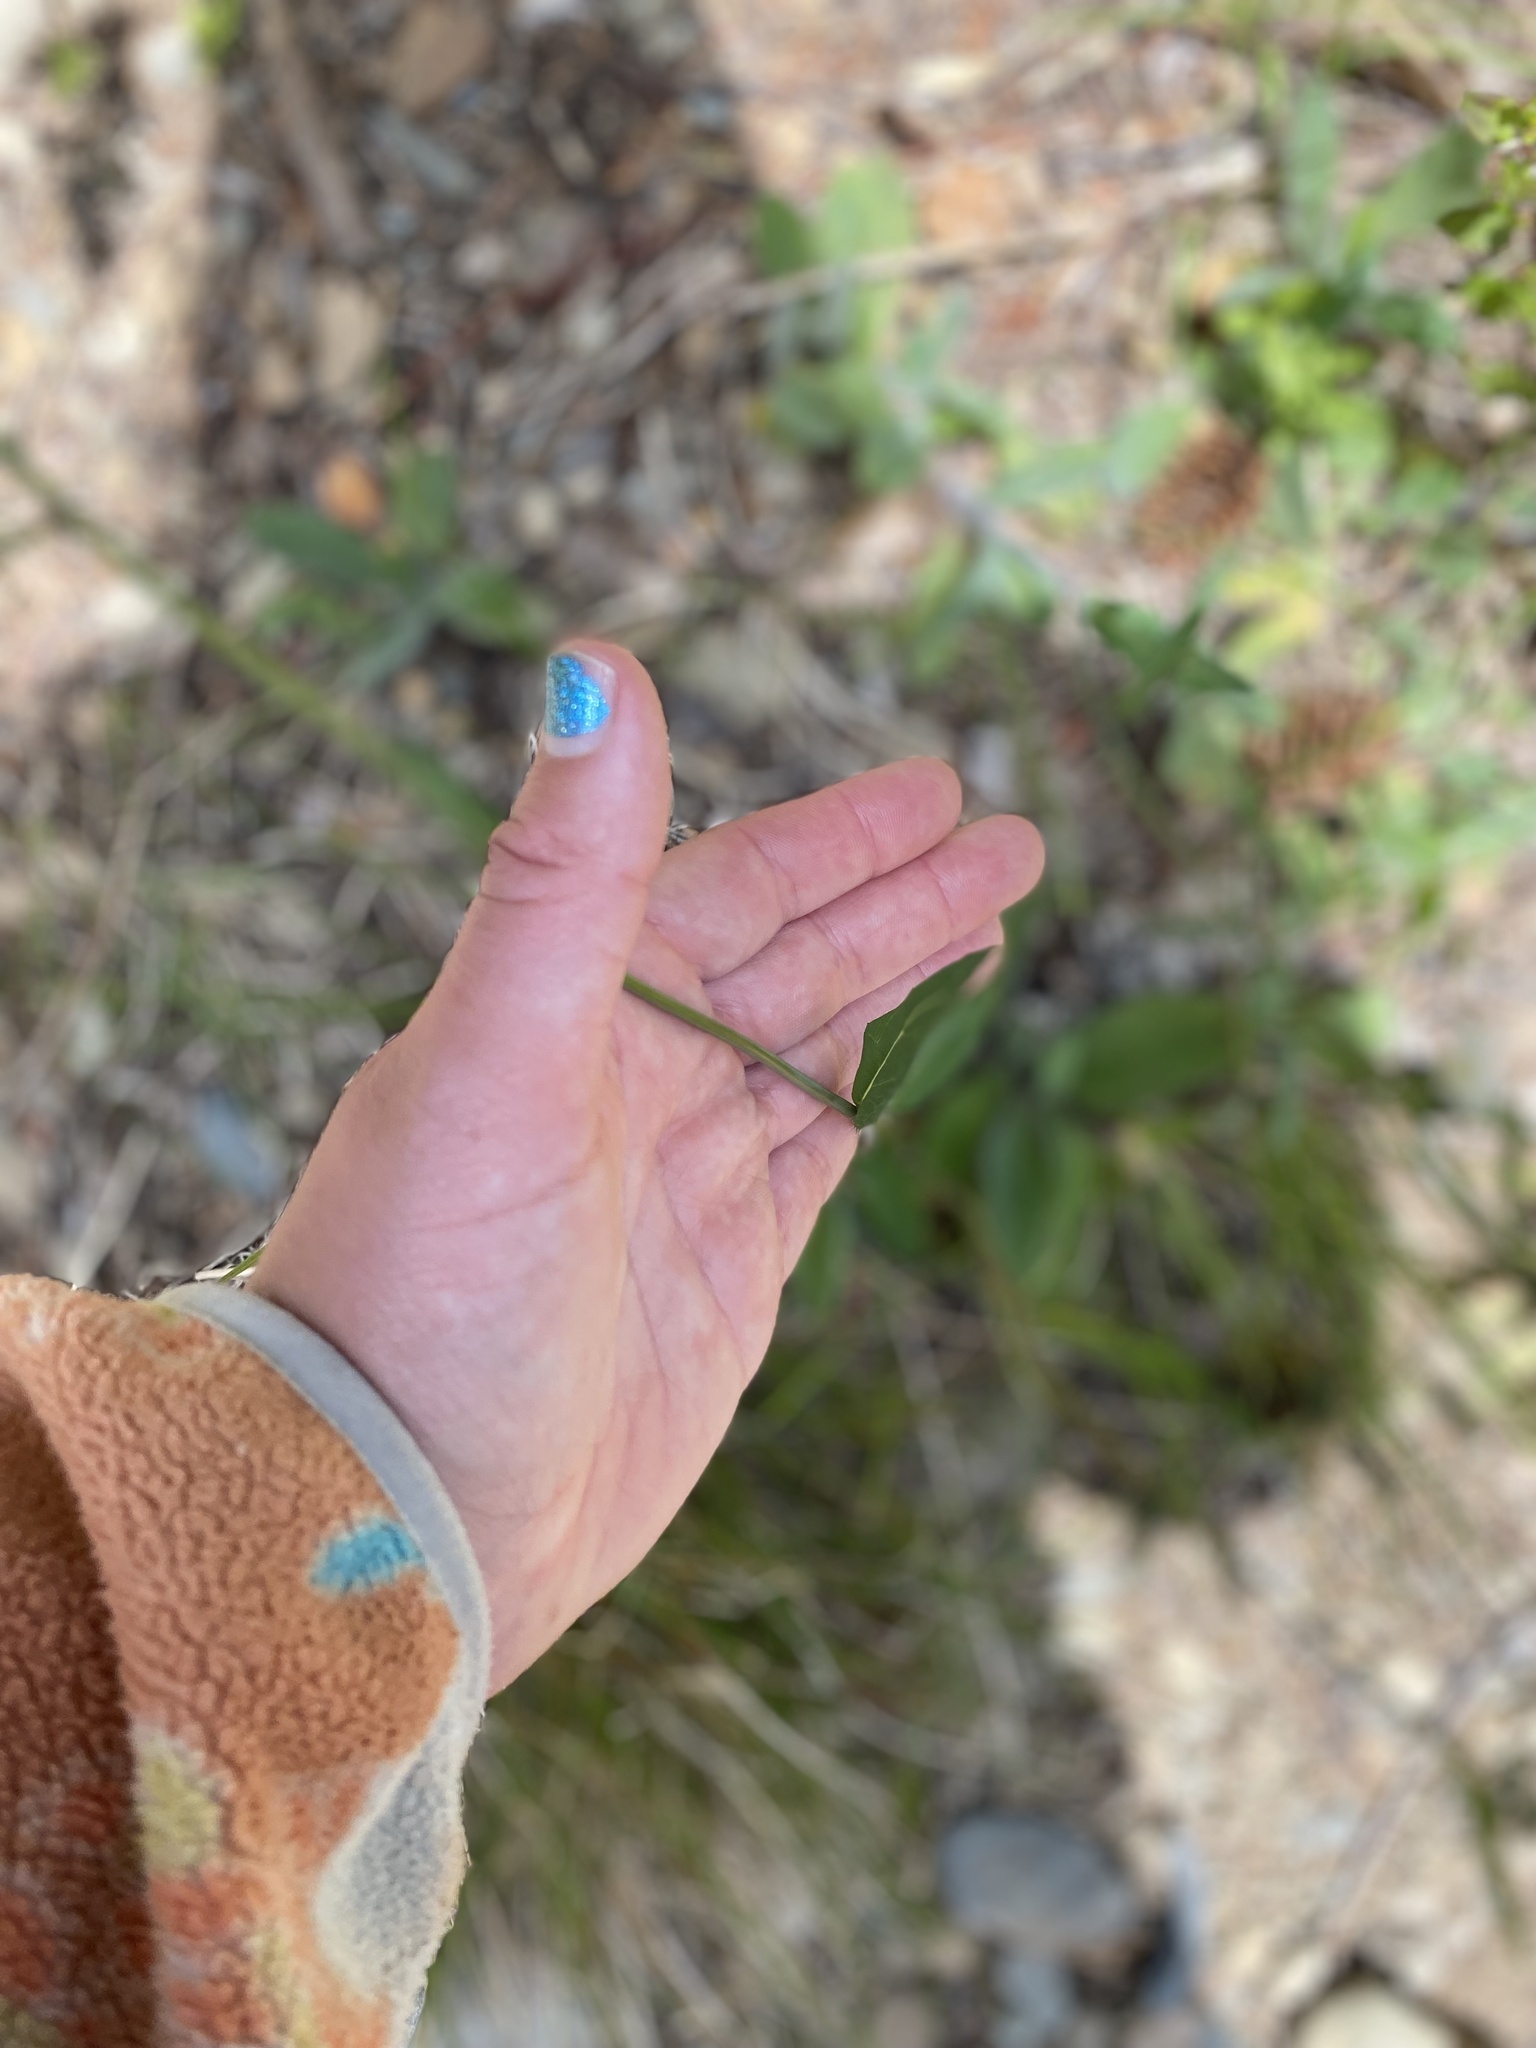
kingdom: Plantae
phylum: Tracheophyta
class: Magnoliopsida
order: Asterales
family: Asteraceae
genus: Hieracium
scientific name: Hieracium albiflorum
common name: White hawkweed
